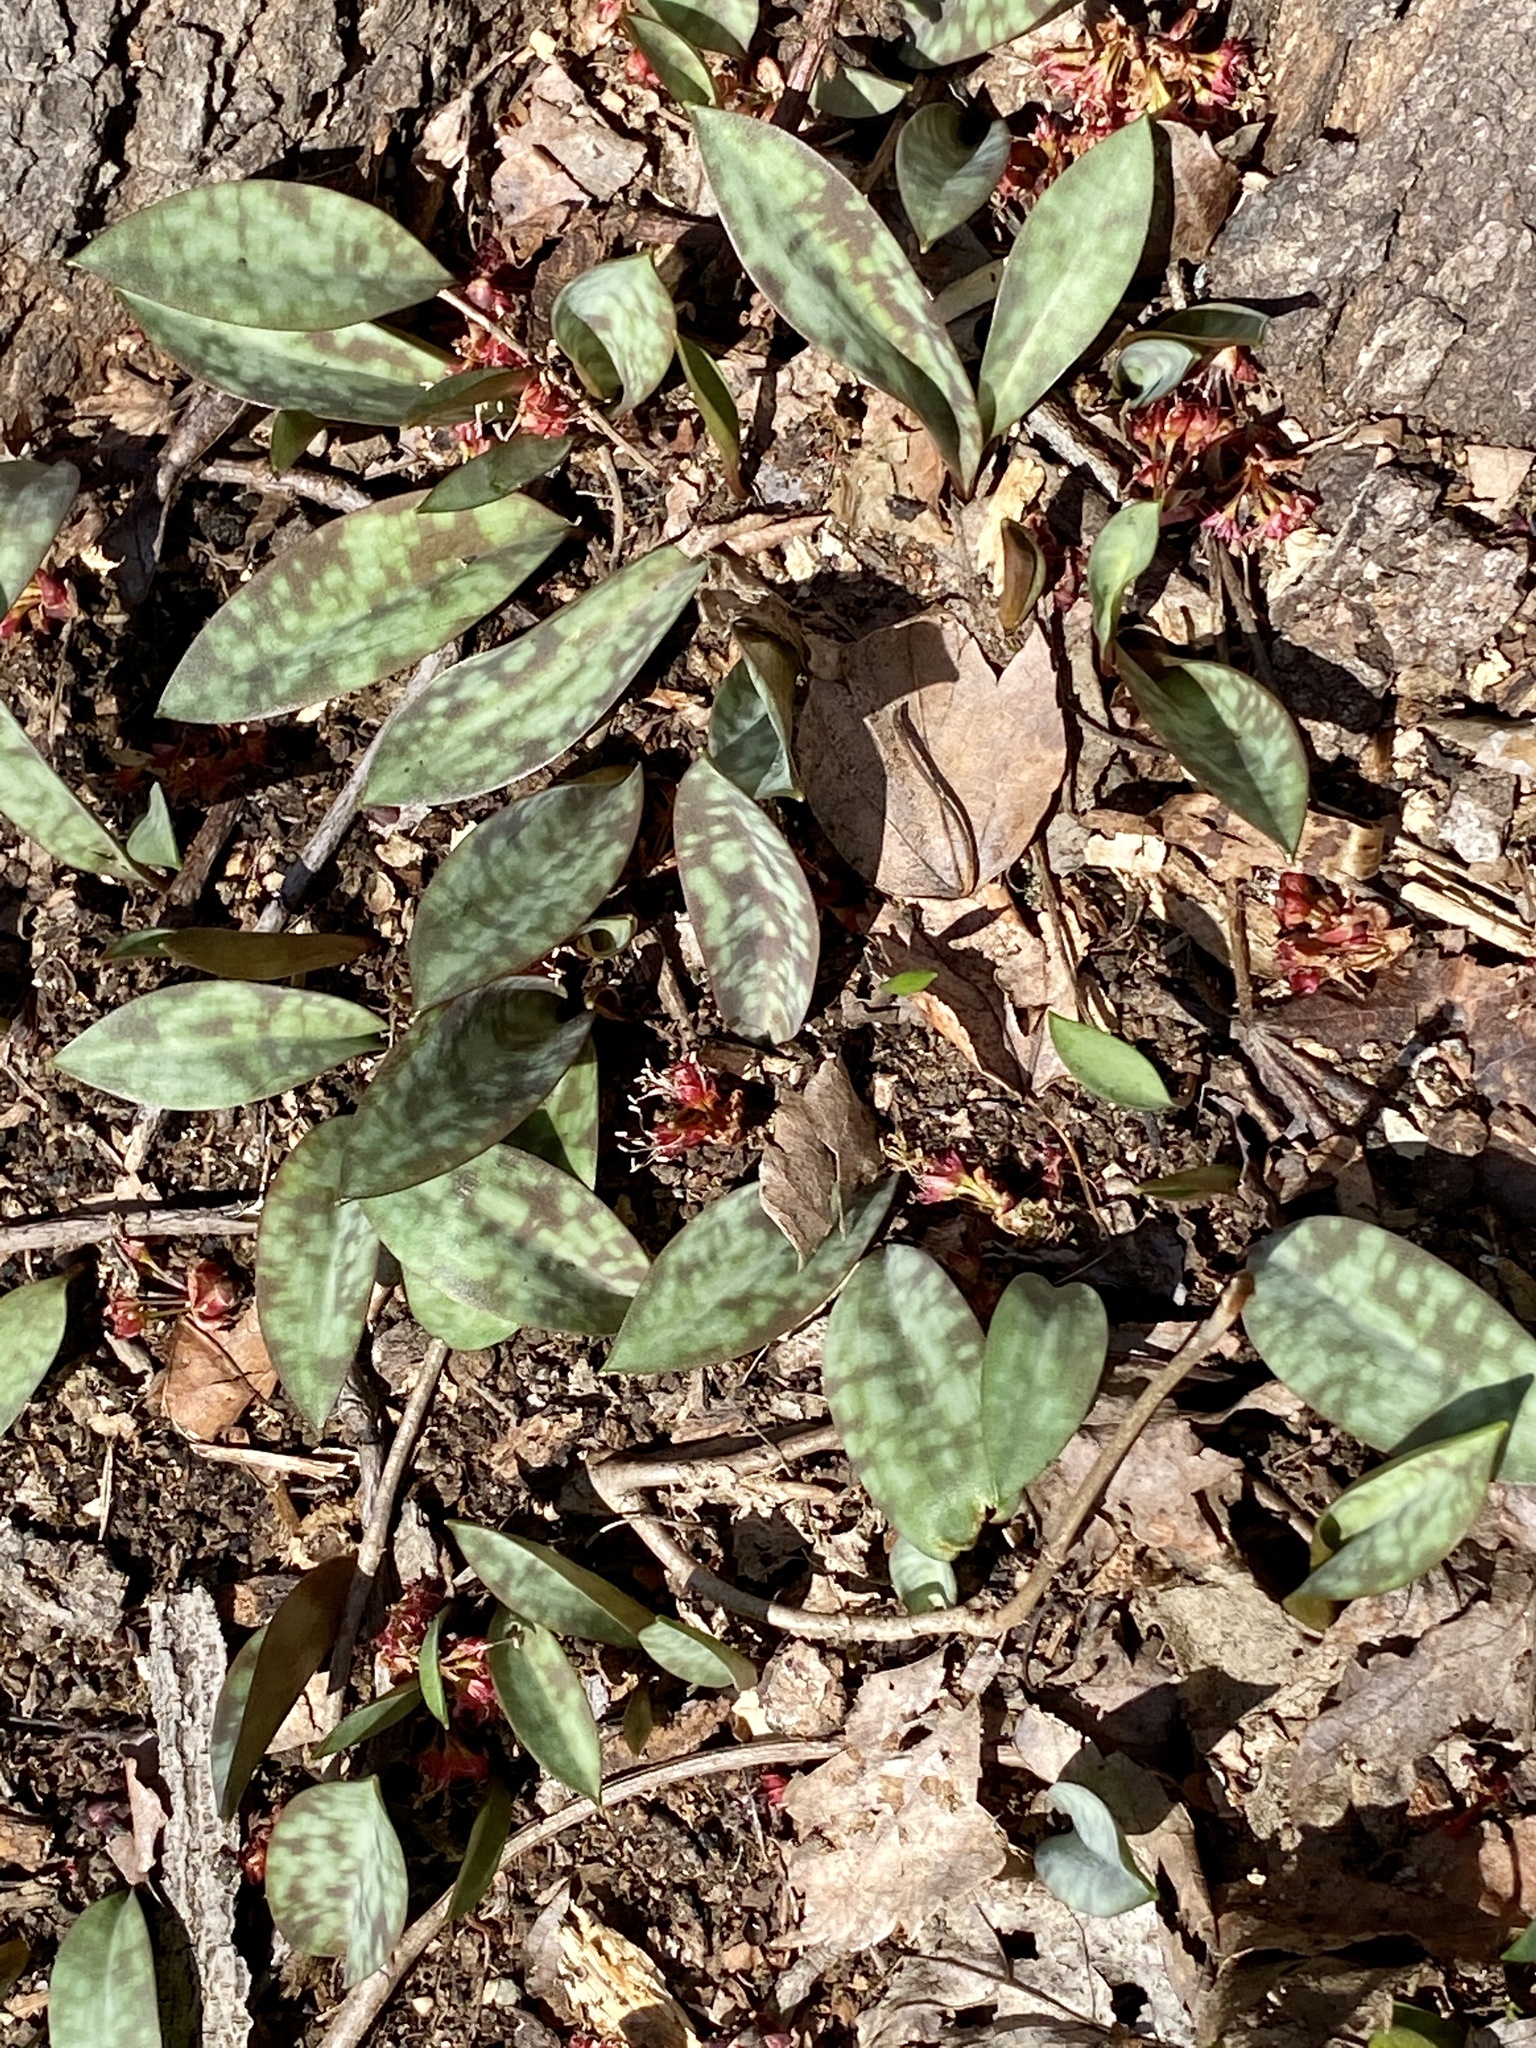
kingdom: Plantae
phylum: Tracheophyta
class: Liliopsida
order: Liliales
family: Liliaceae
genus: Erythronium
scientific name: Erythronium americanum
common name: Yellow adder's-tongue
